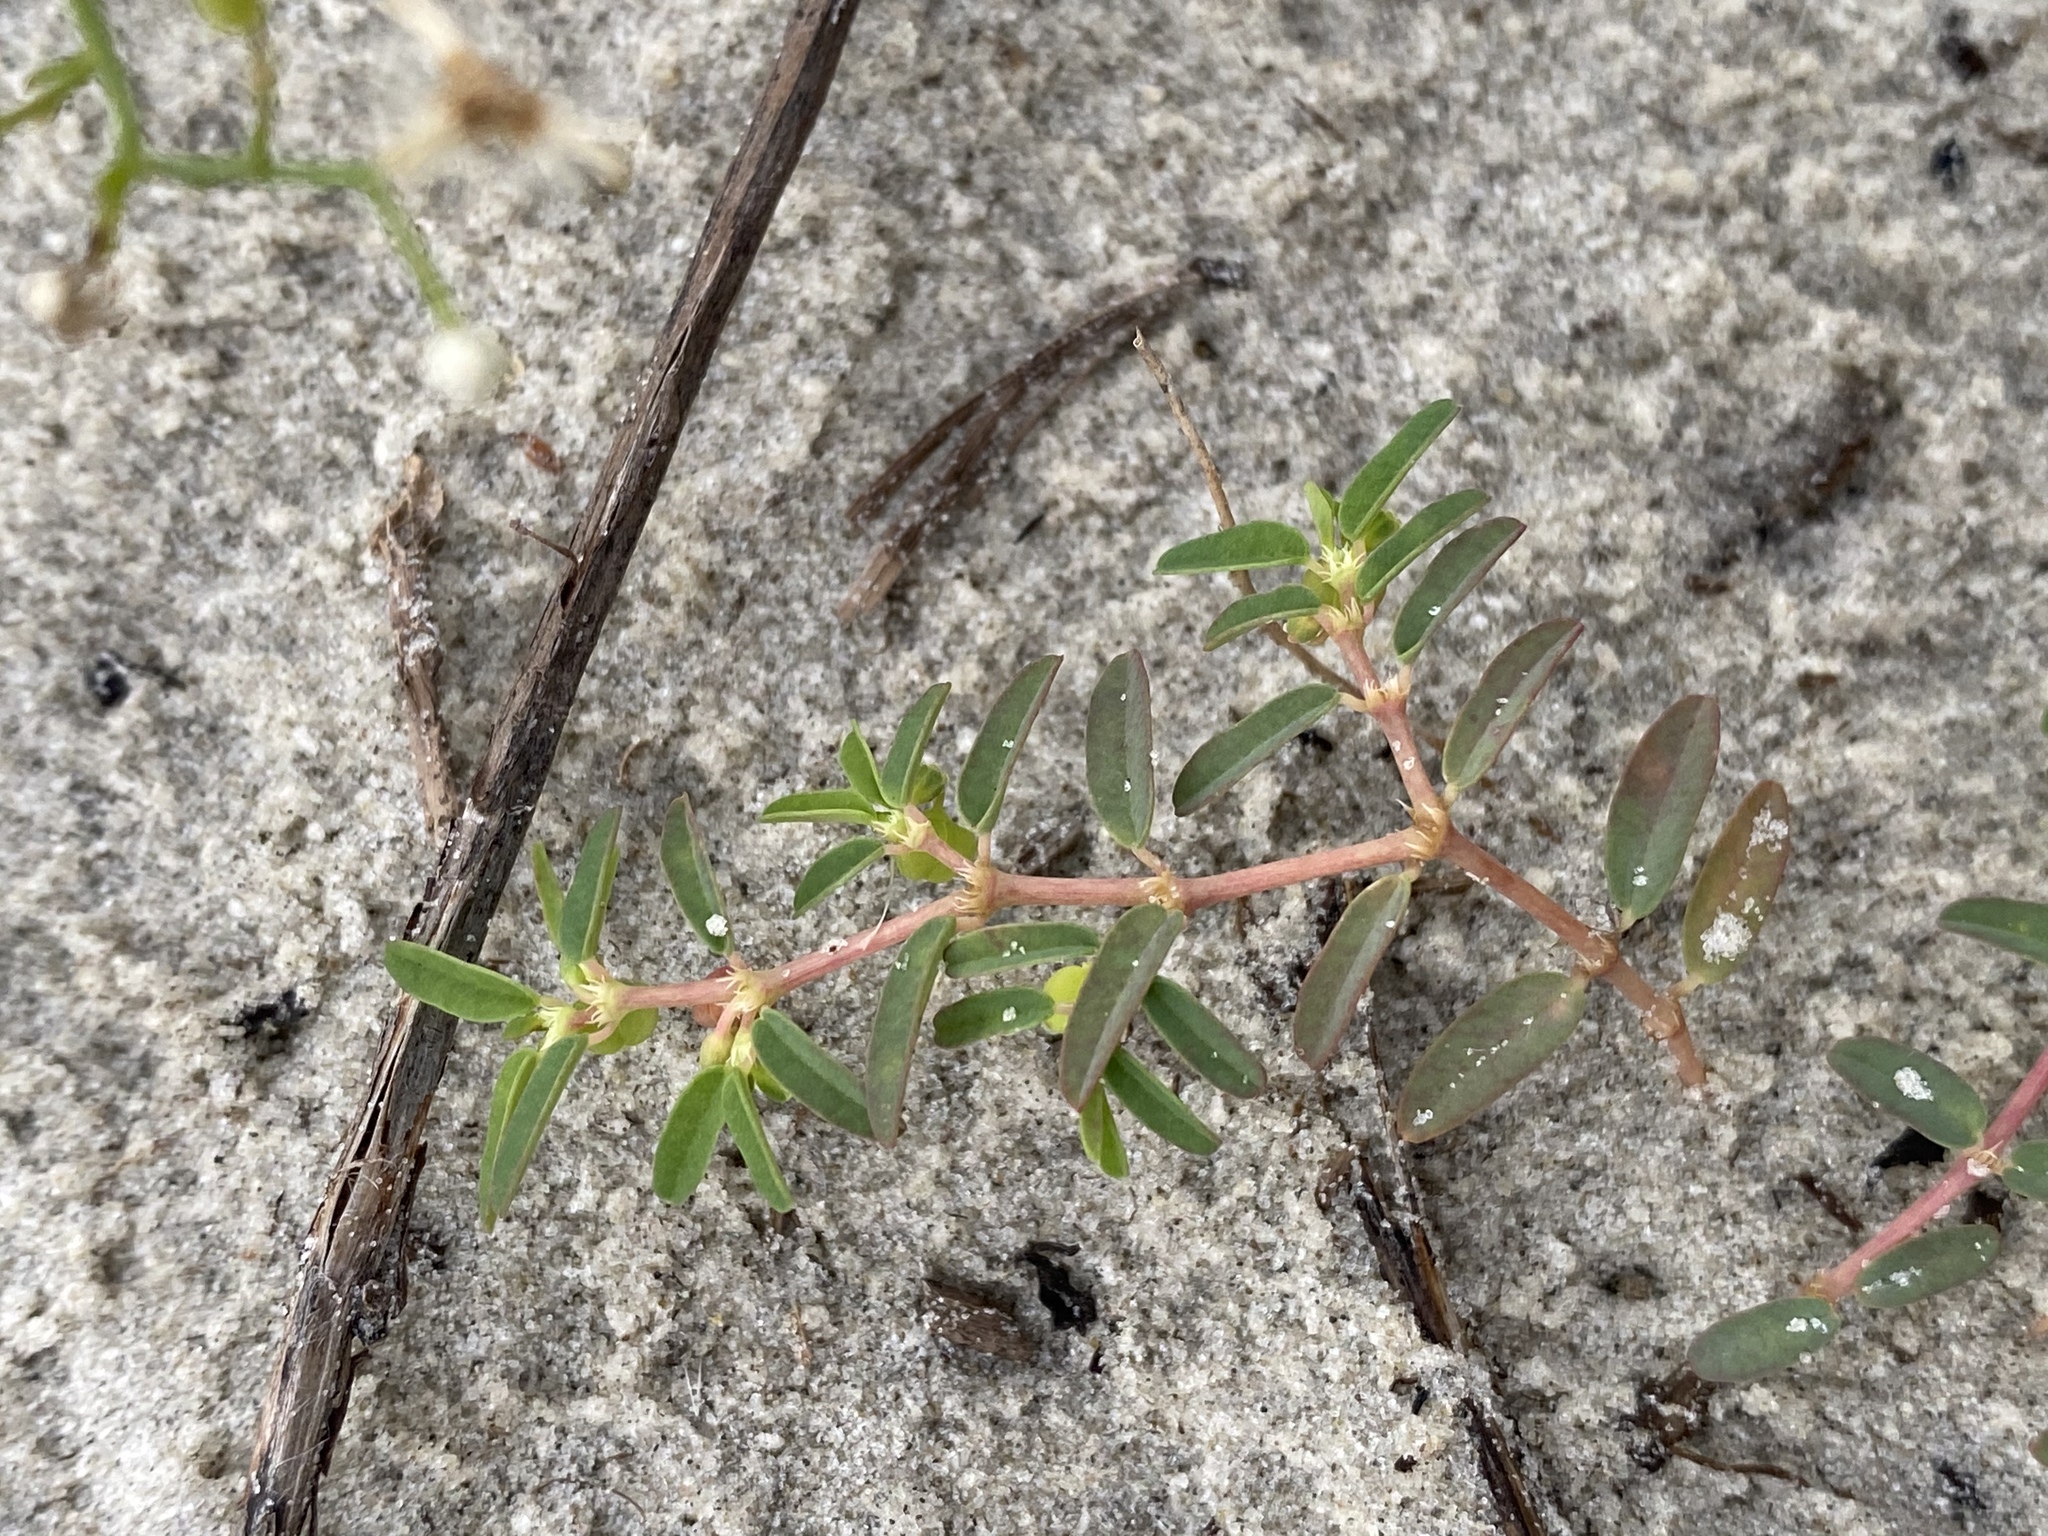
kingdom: Plantae
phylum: Tracheophyta
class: Magnoliopsida
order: Malpighiales
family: Euphorbiaceae
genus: Euphorbia
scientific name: Euphorbia bombensis
